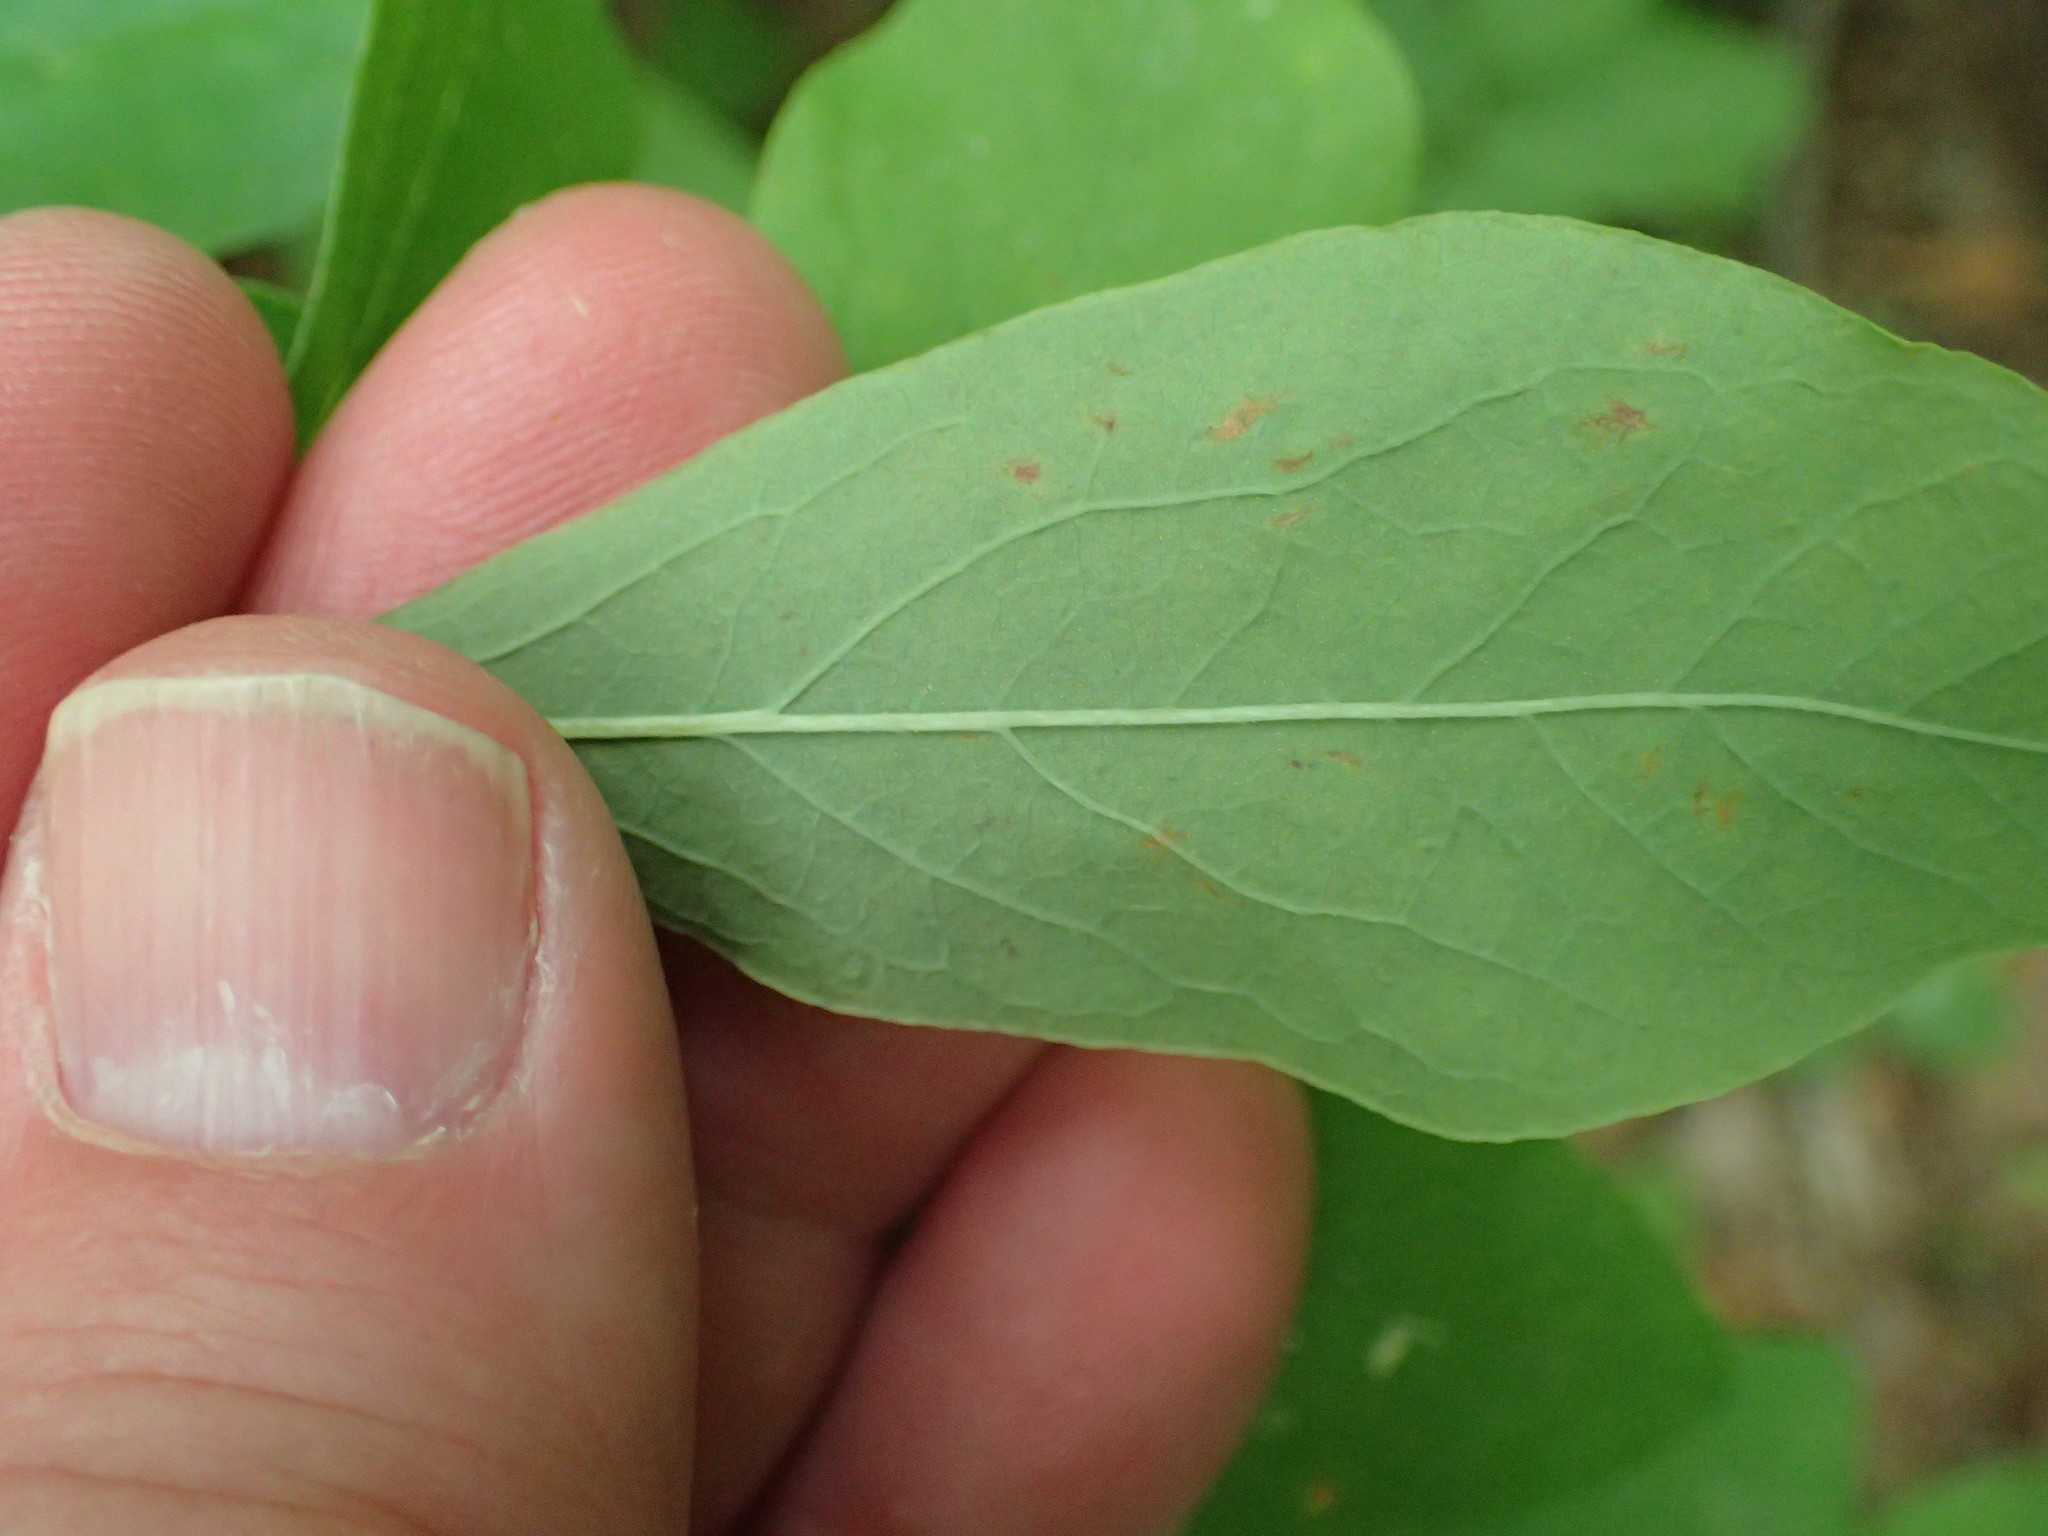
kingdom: Plantae
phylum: Tracheophyta
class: Magnoliopsida
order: Ericales
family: Ericaceae
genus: Gaylussacia
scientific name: Gaylussacia frondosa
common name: Dangleberry
